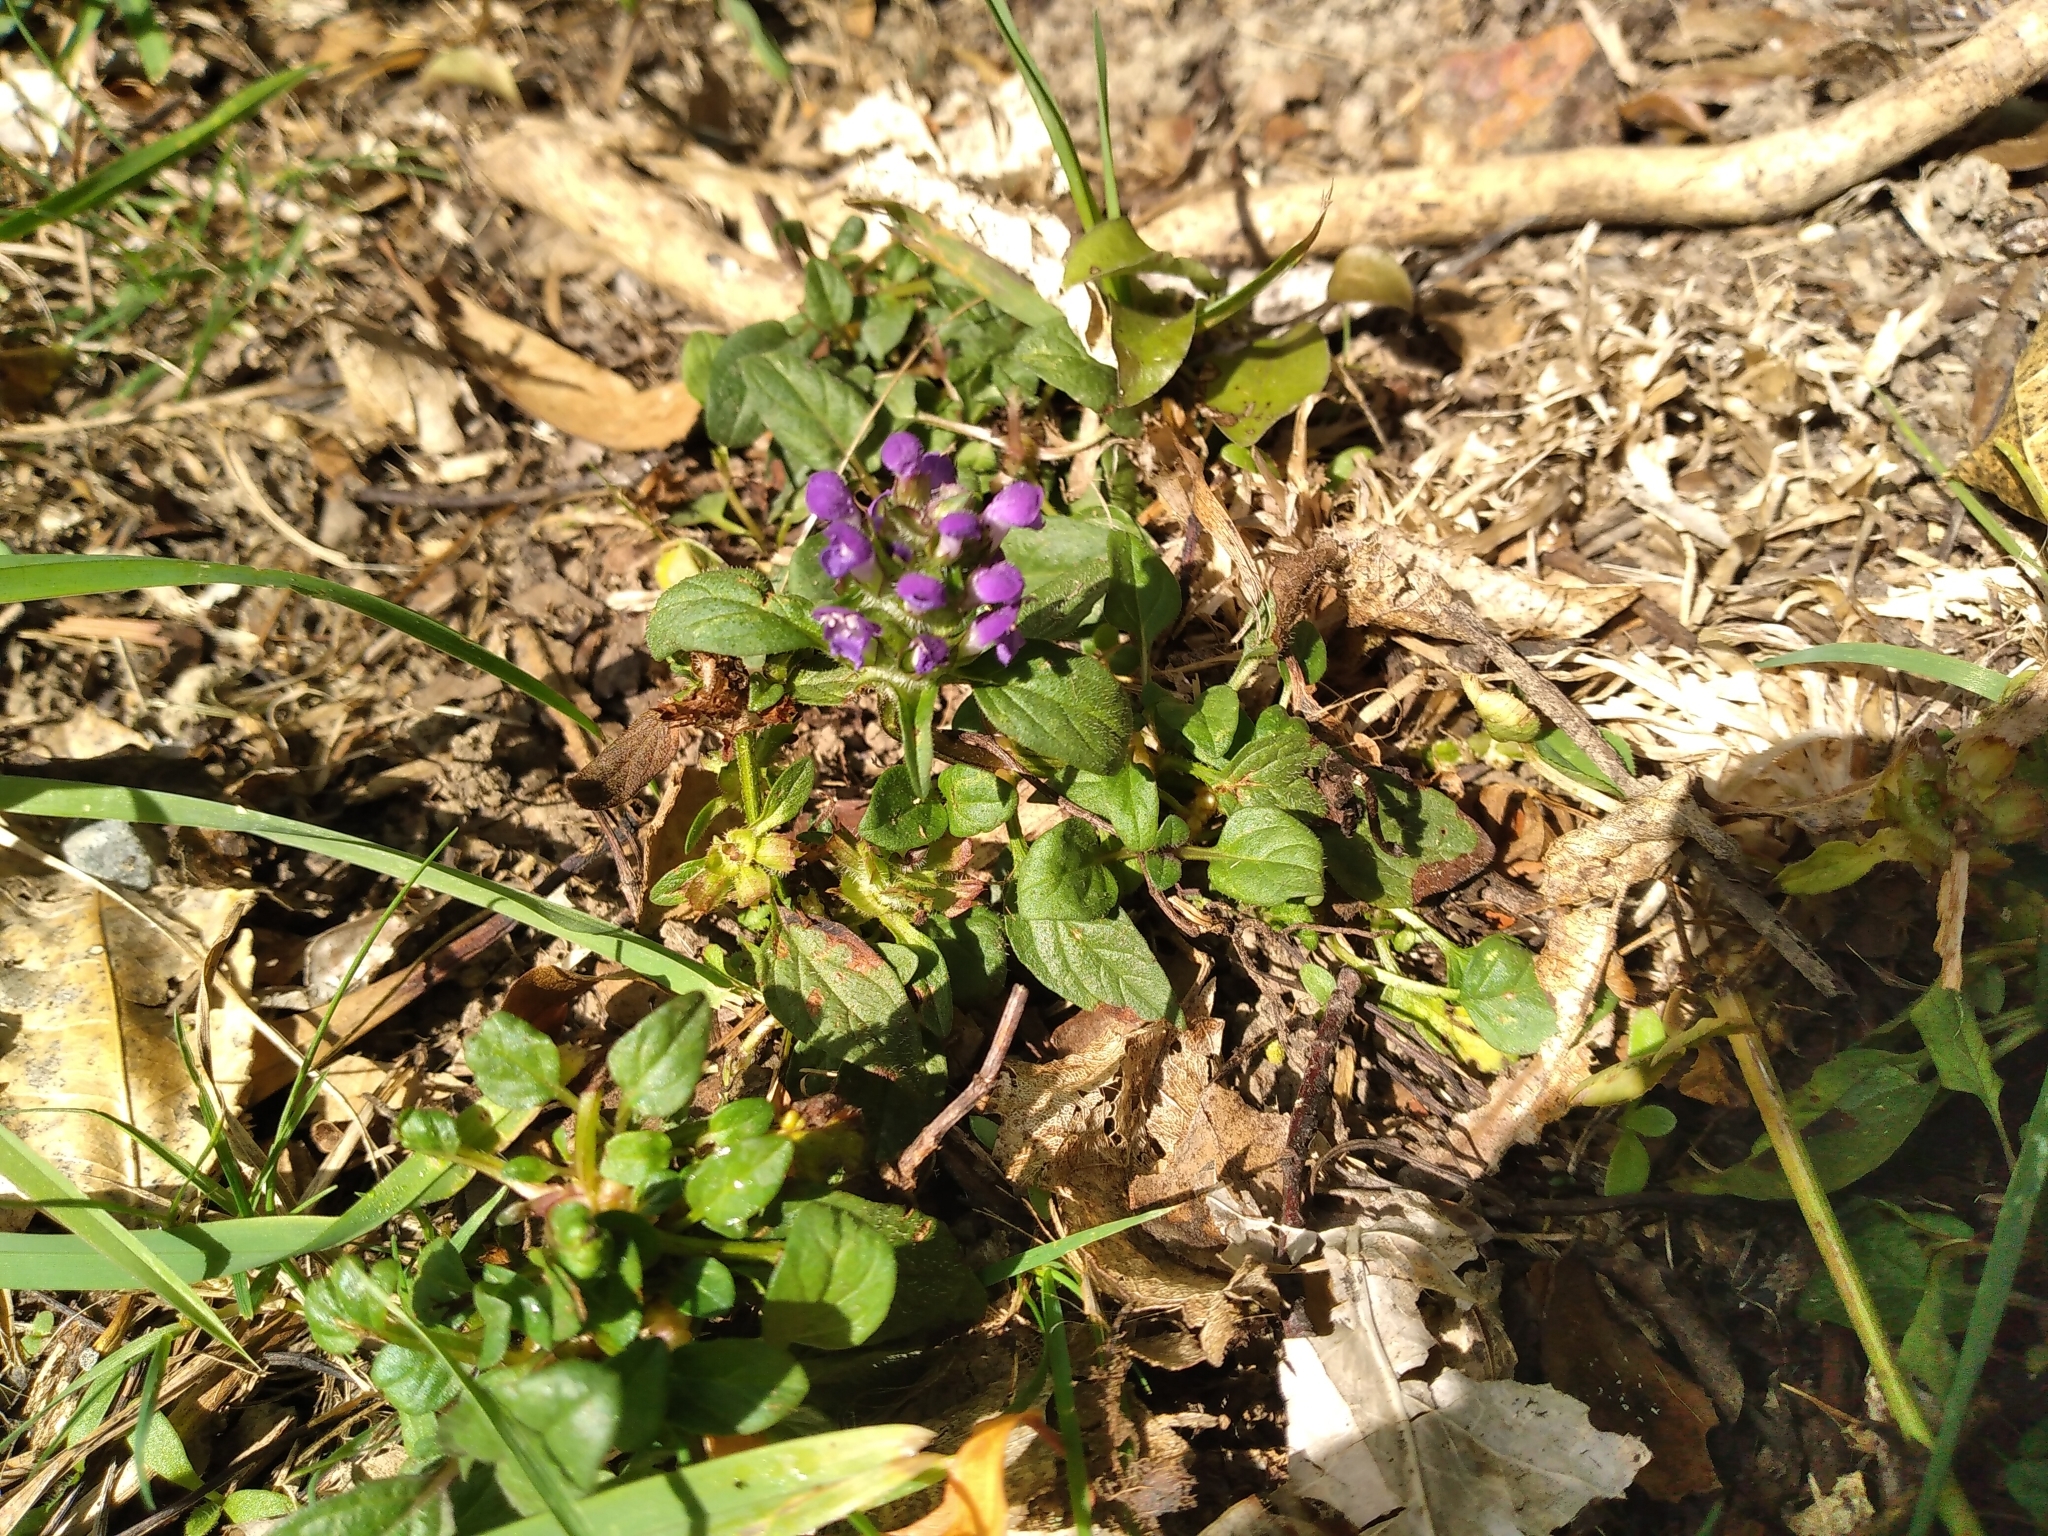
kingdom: Plantae
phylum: Tracheophyta
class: Magnoliopsida
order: Lamiales
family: Lamiaceae
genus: Prunella
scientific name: Prunella vulgaris
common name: Heal-all
